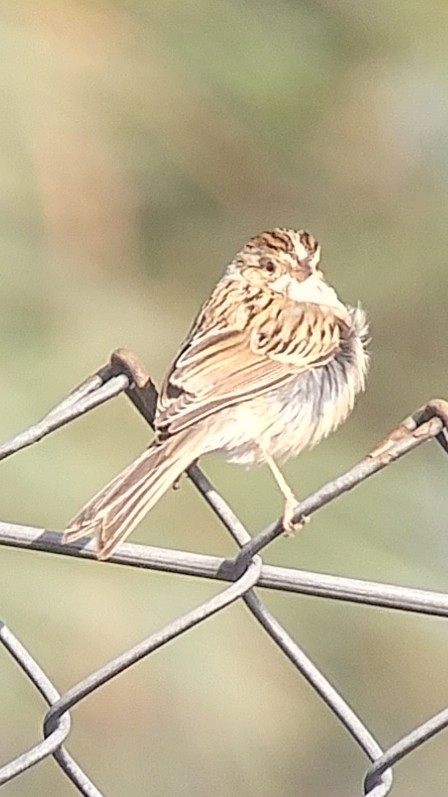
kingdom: Animalia
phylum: Chordata
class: Aves
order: Passeriformes
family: Passerellidae
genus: Spizella
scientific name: Spizella pallida
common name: Clay-colored sparrow
